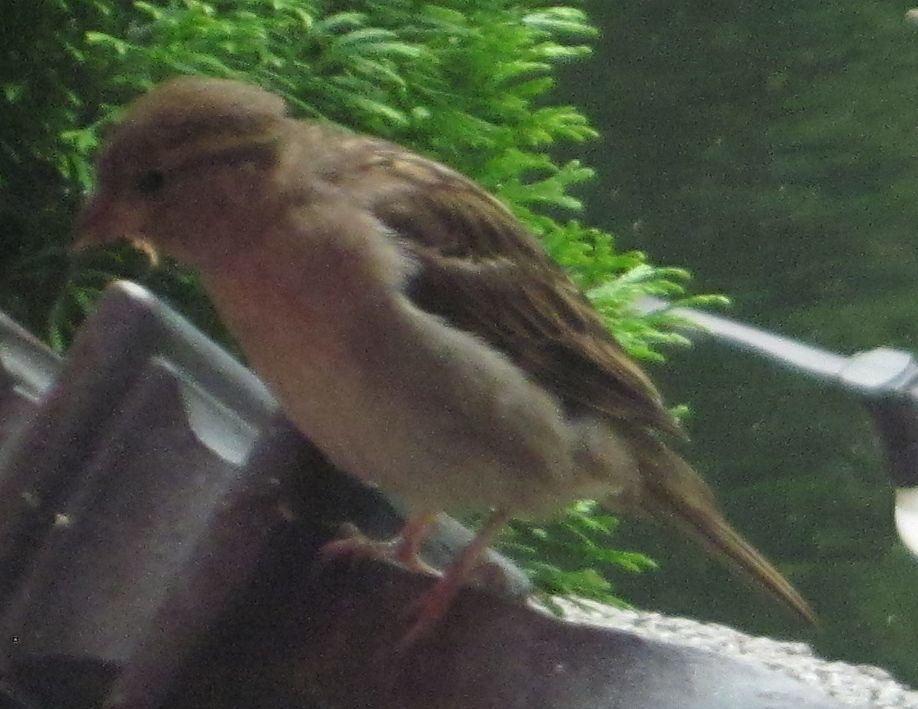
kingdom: Animalia
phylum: Chordata
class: Aves
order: Passeriformes
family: Passeridae
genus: Passer
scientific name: Passer domesticus
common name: House sparrow
